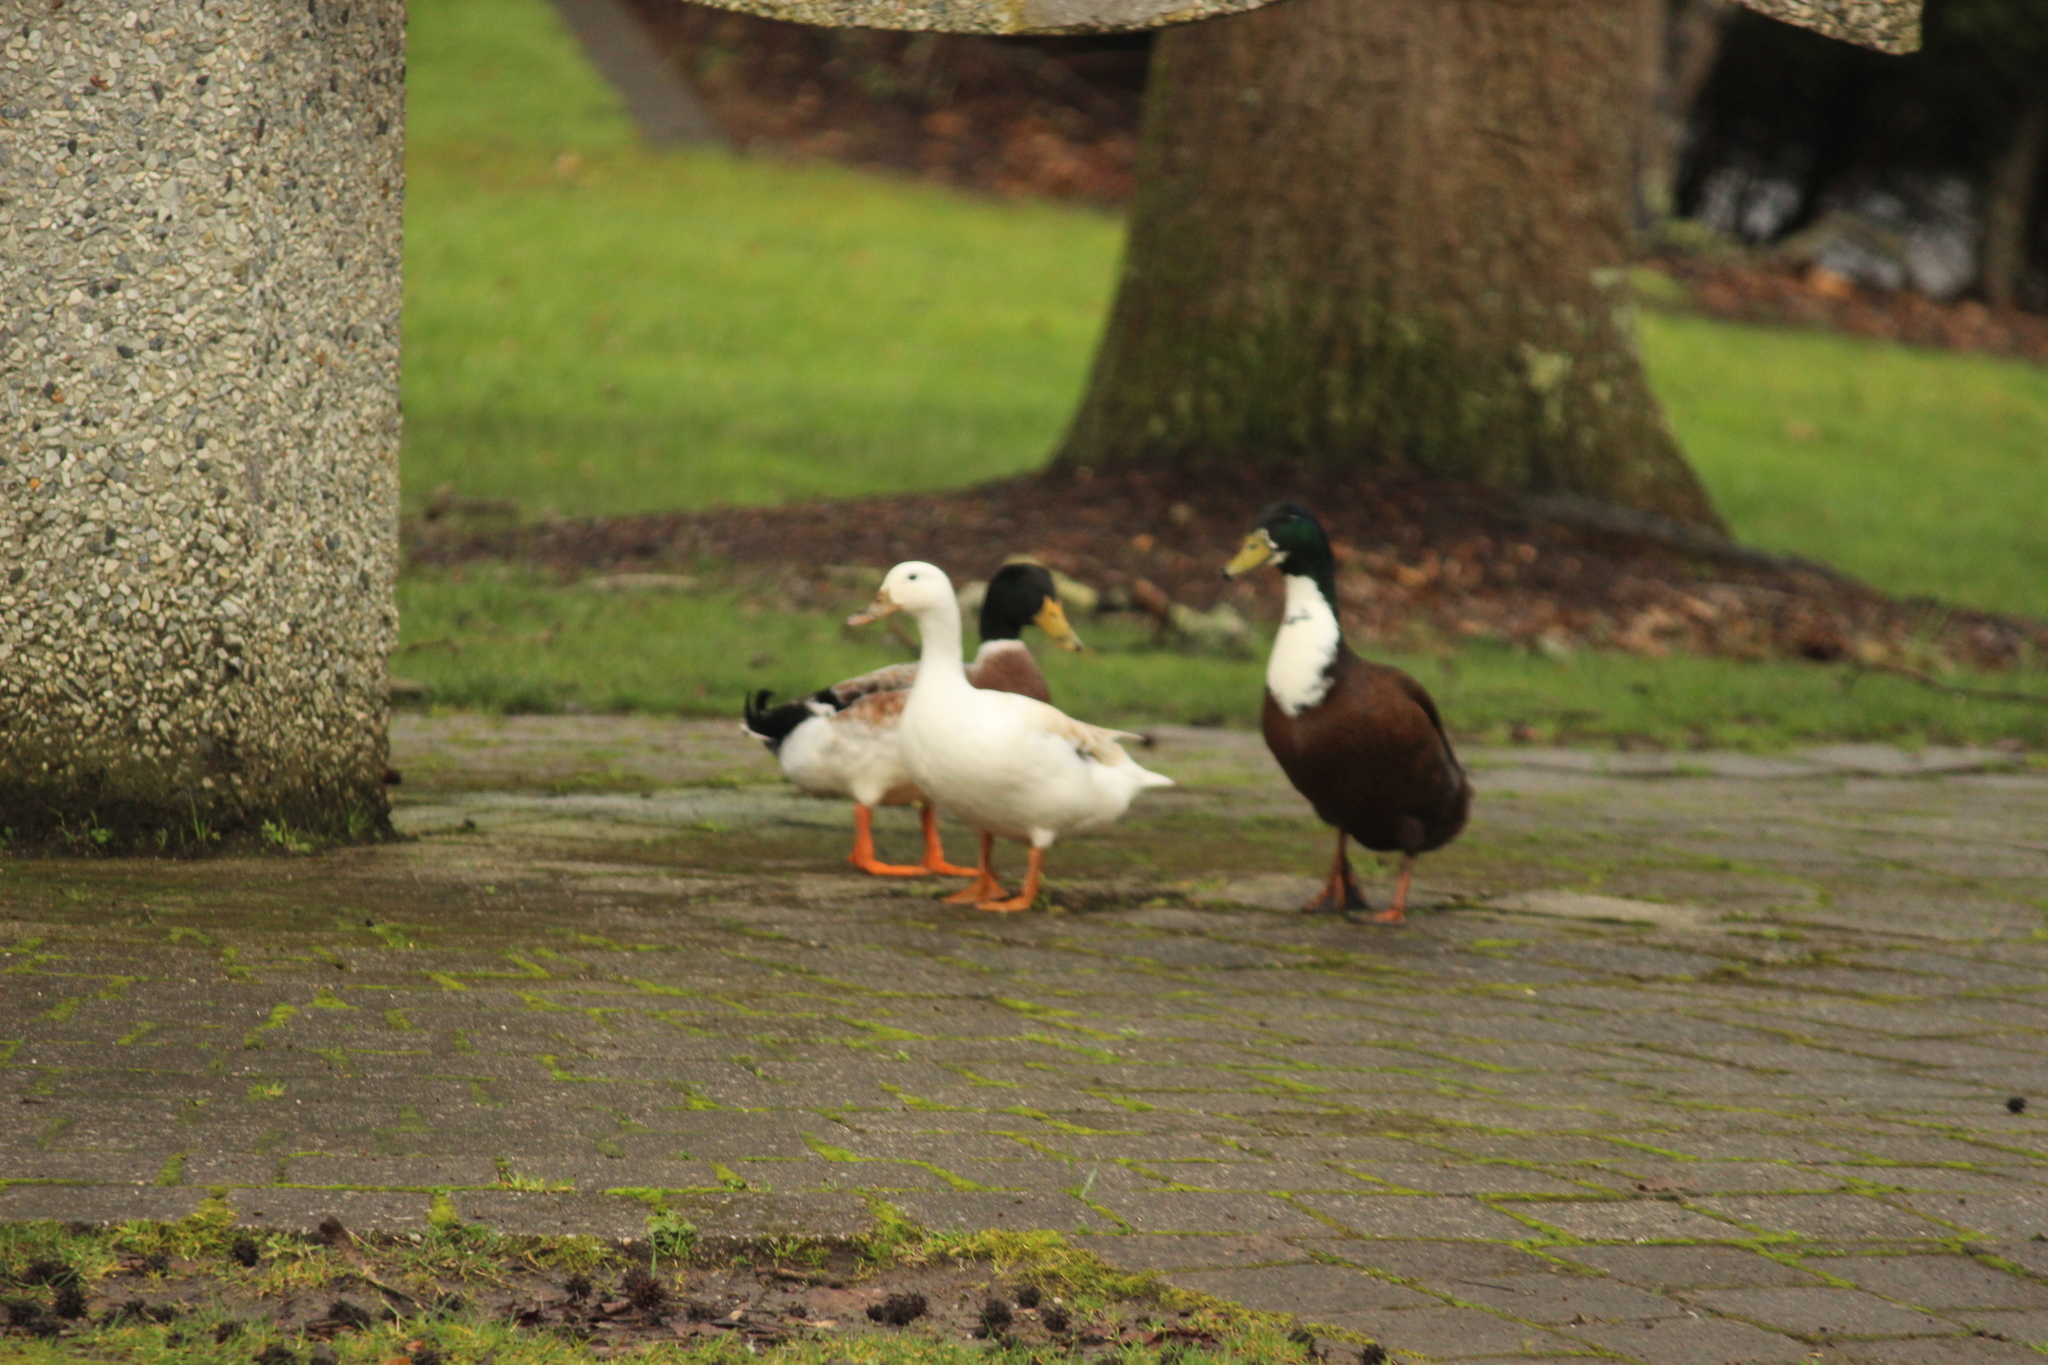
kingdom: Animalia
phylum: Chordata
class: Aves
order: Anseriformes
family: Anatidae
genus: Anas
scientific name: Anas platyrhynchos
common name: Mallard
